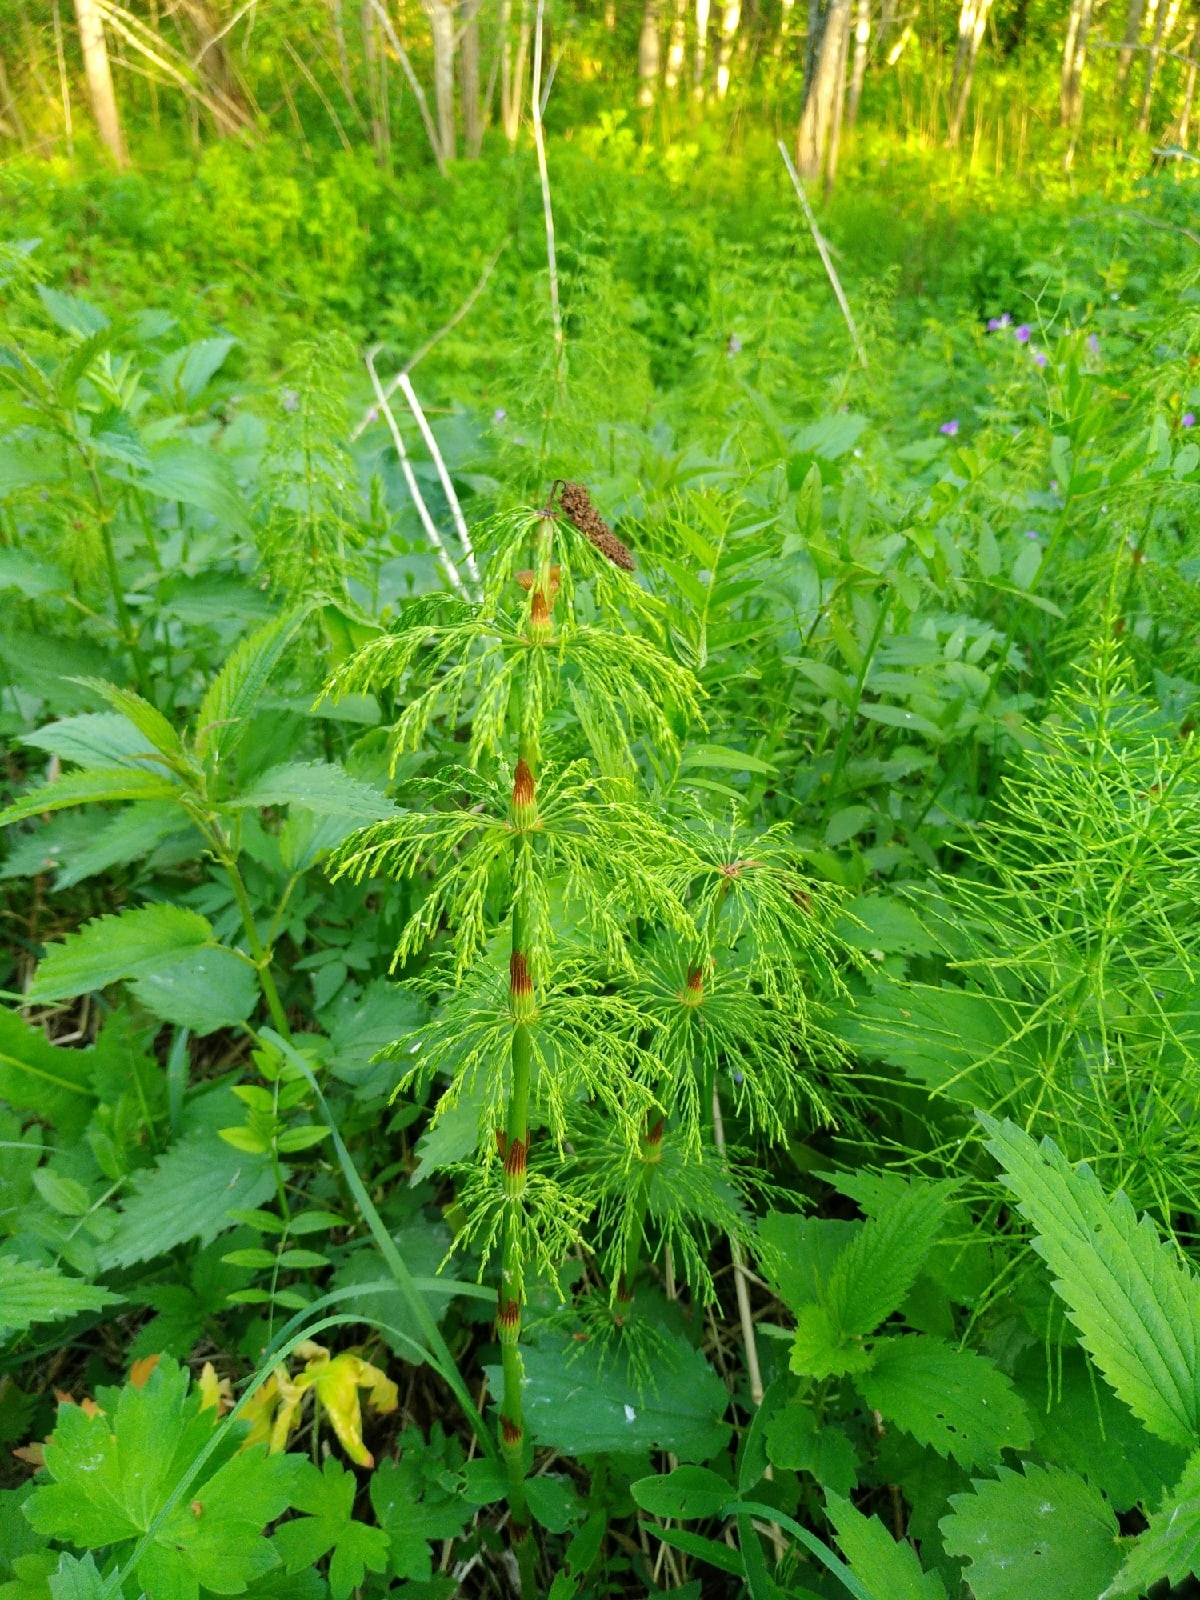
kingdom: Plantae
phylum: Tracheophyta
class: Polypodiopsida
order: Equisetales
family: Equisetaceae
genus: Equisetum
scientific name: Equisetum sylvaticum
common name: Wood horsetail
